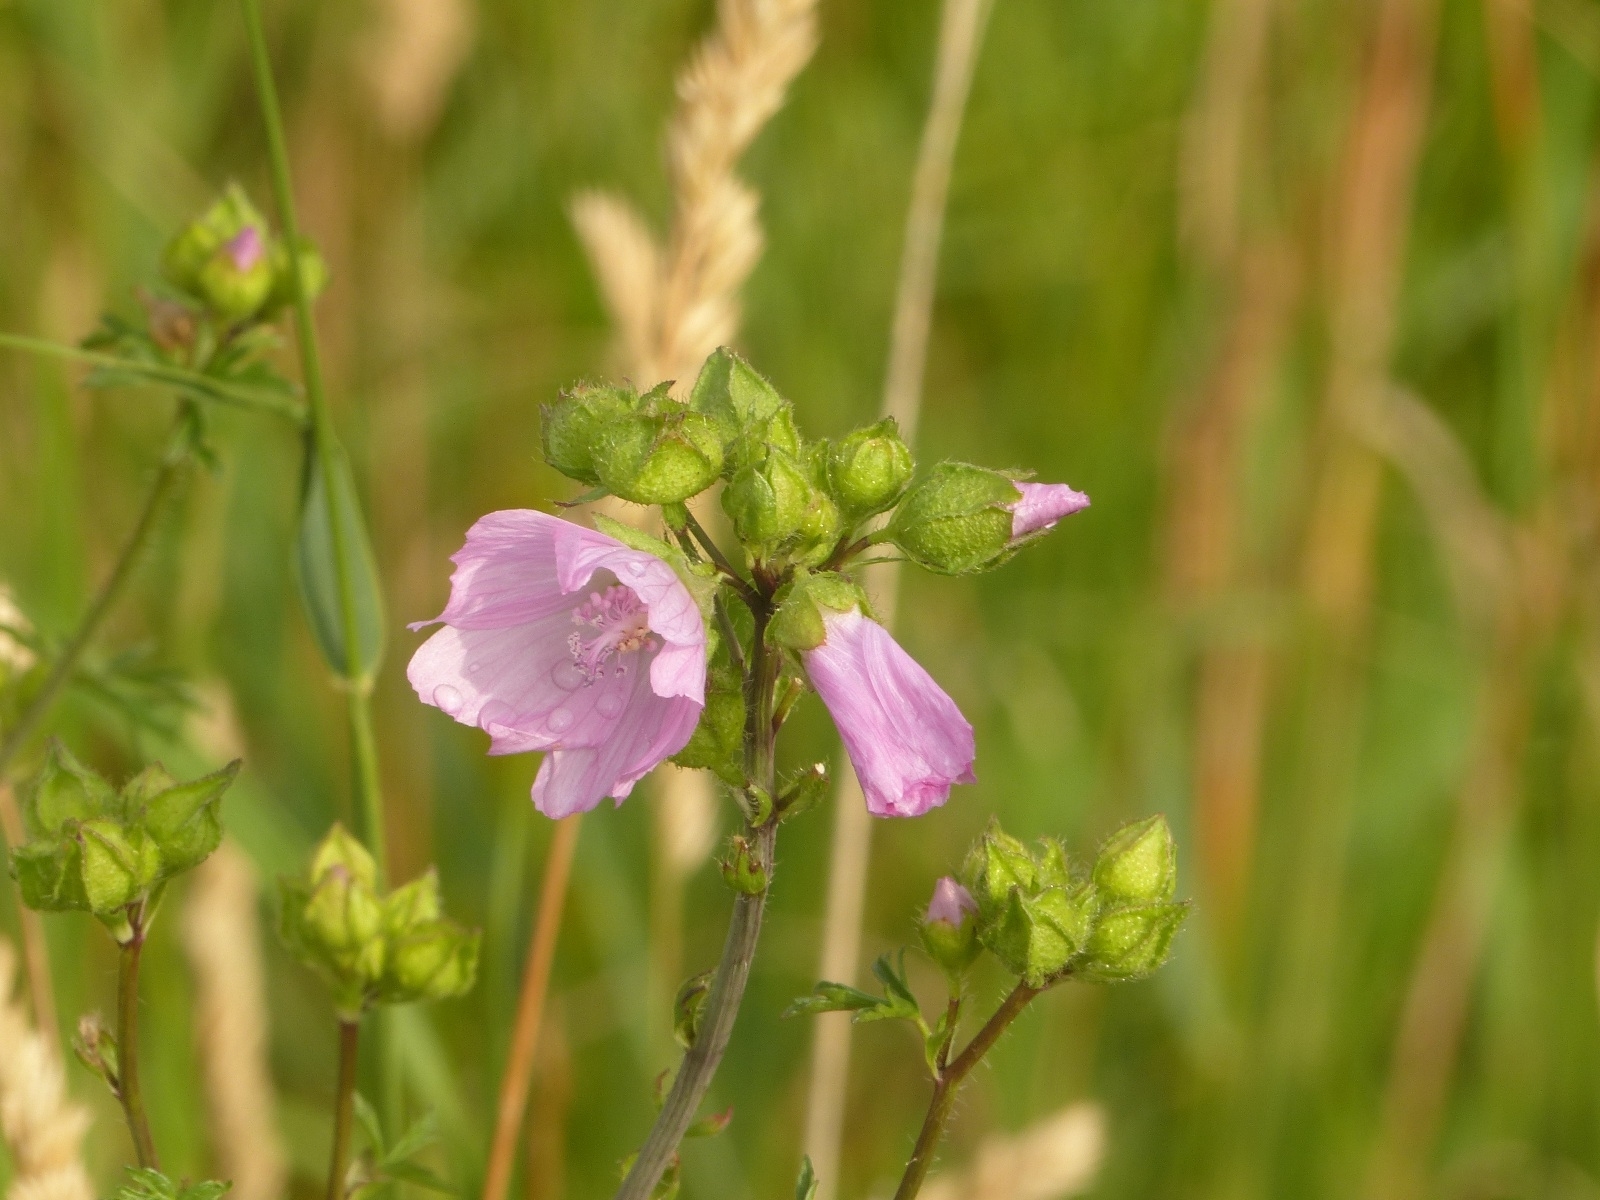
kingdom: Plantae
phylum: Tracheophyta
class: Magnoliopsida
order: Malvales
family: Malvaceae
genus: Malva
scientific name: Malva moschata
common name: Musk mallow
